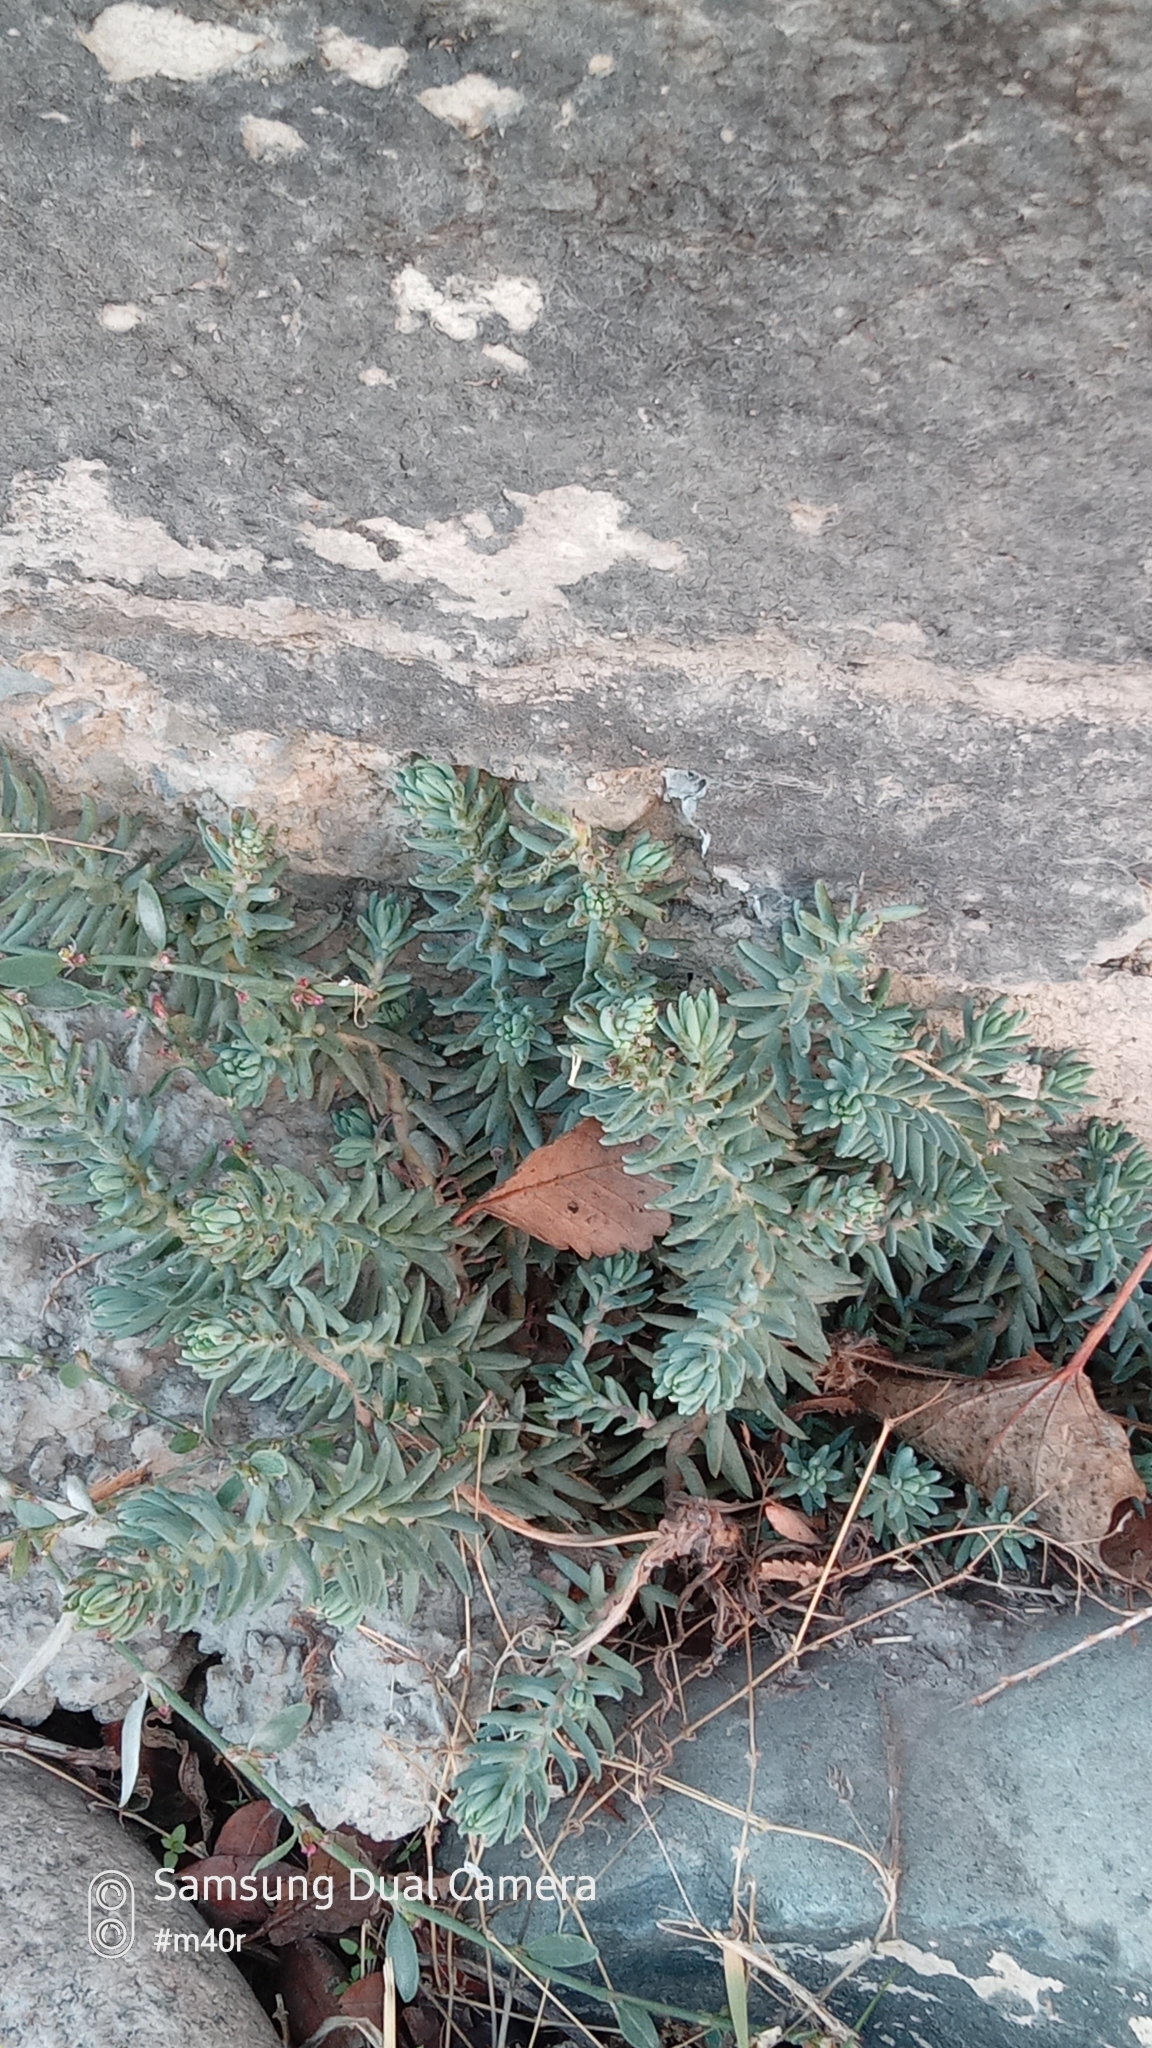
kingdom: Plantae
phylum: Tracheophyta
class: Magnoliopsida
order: Saxifragales
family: Crassulaceae
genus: Petrosedum
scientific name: Petrosedum
